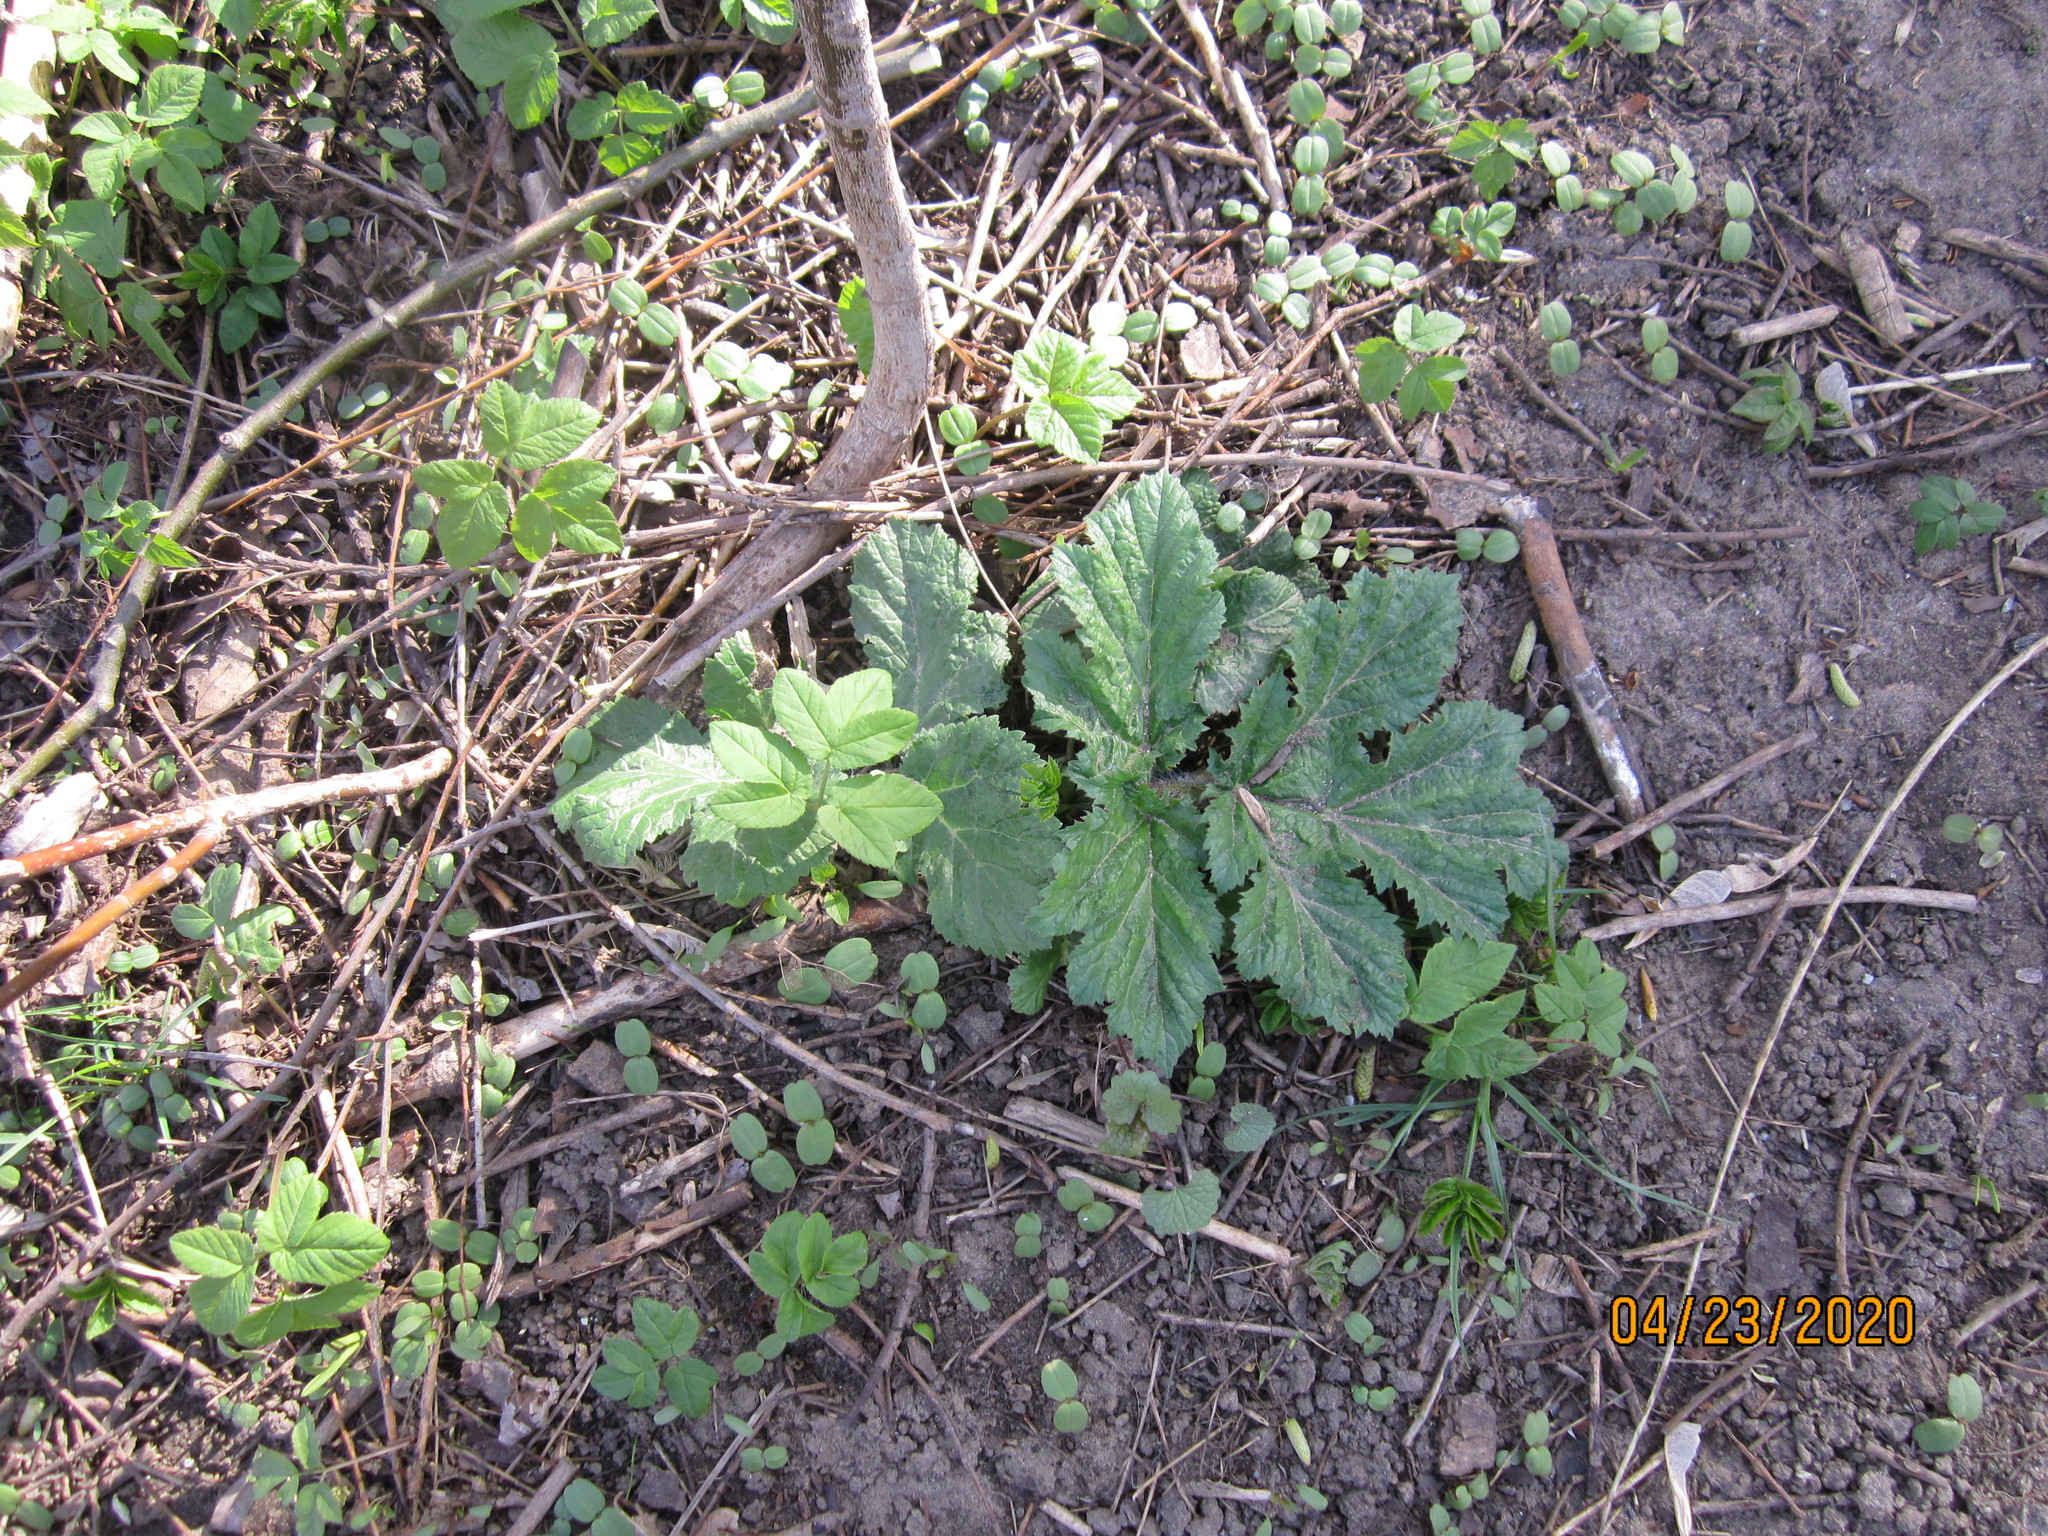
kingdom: Plantae
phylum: Tracheophyta
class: Magnoliopsida
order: Apiales
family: Apiaceae
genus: Heracleum
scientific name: Heracleum sosnowskyi
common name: Sosnowsky's hogweed
